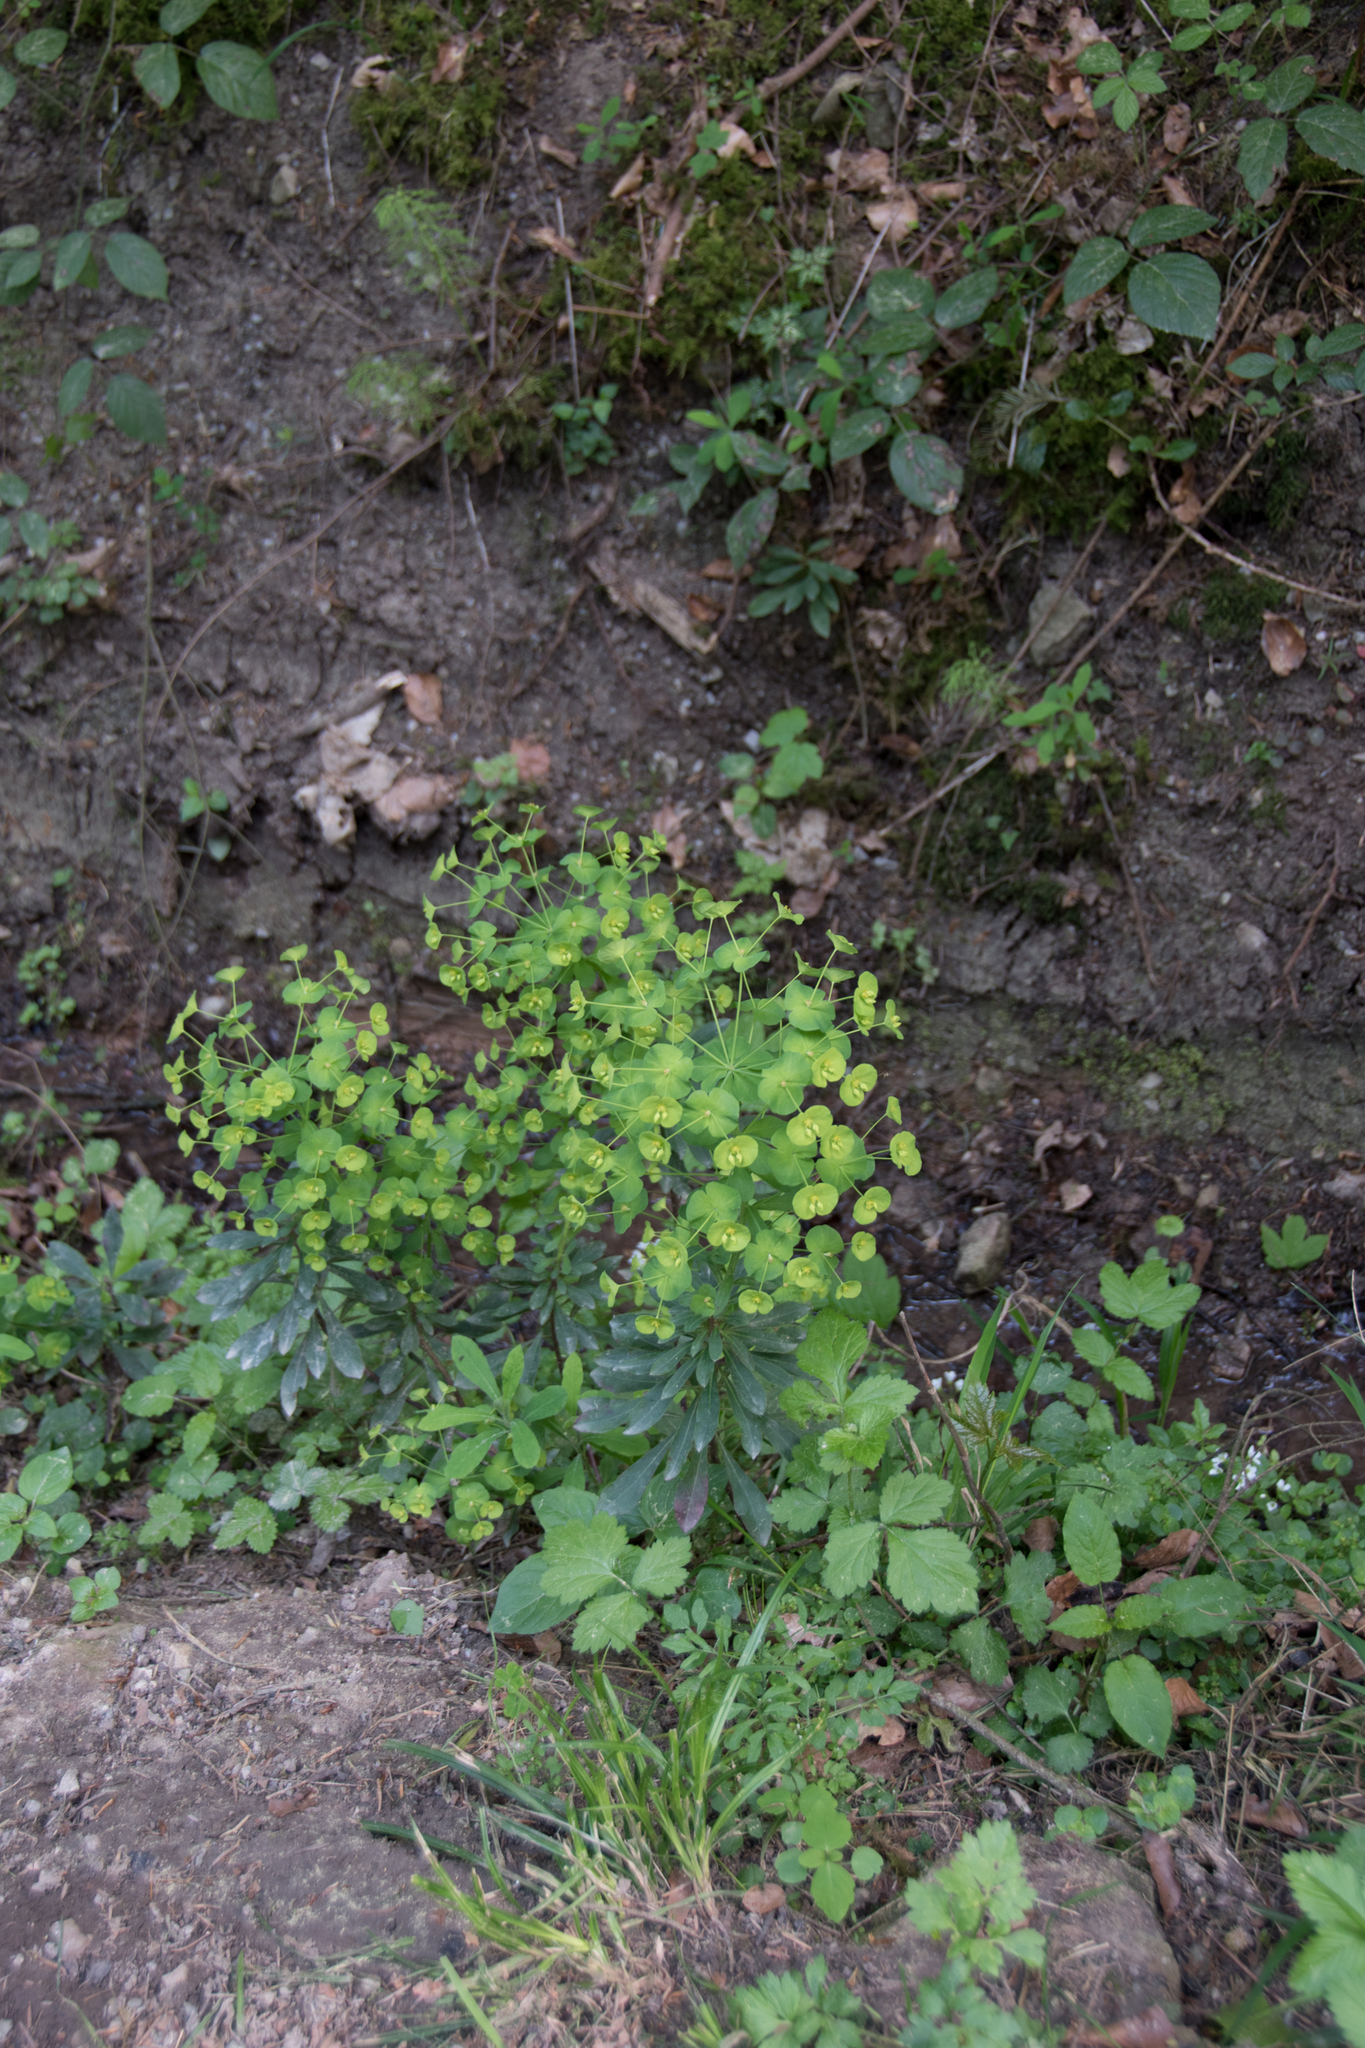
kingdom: Plantae
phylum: Tracheophyta
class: Magnoliopsida
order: Malpighiales
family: Euphorbiaceae
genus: Euphorbia
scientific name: Euphorbia amygdaloides
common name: Wood spurge
